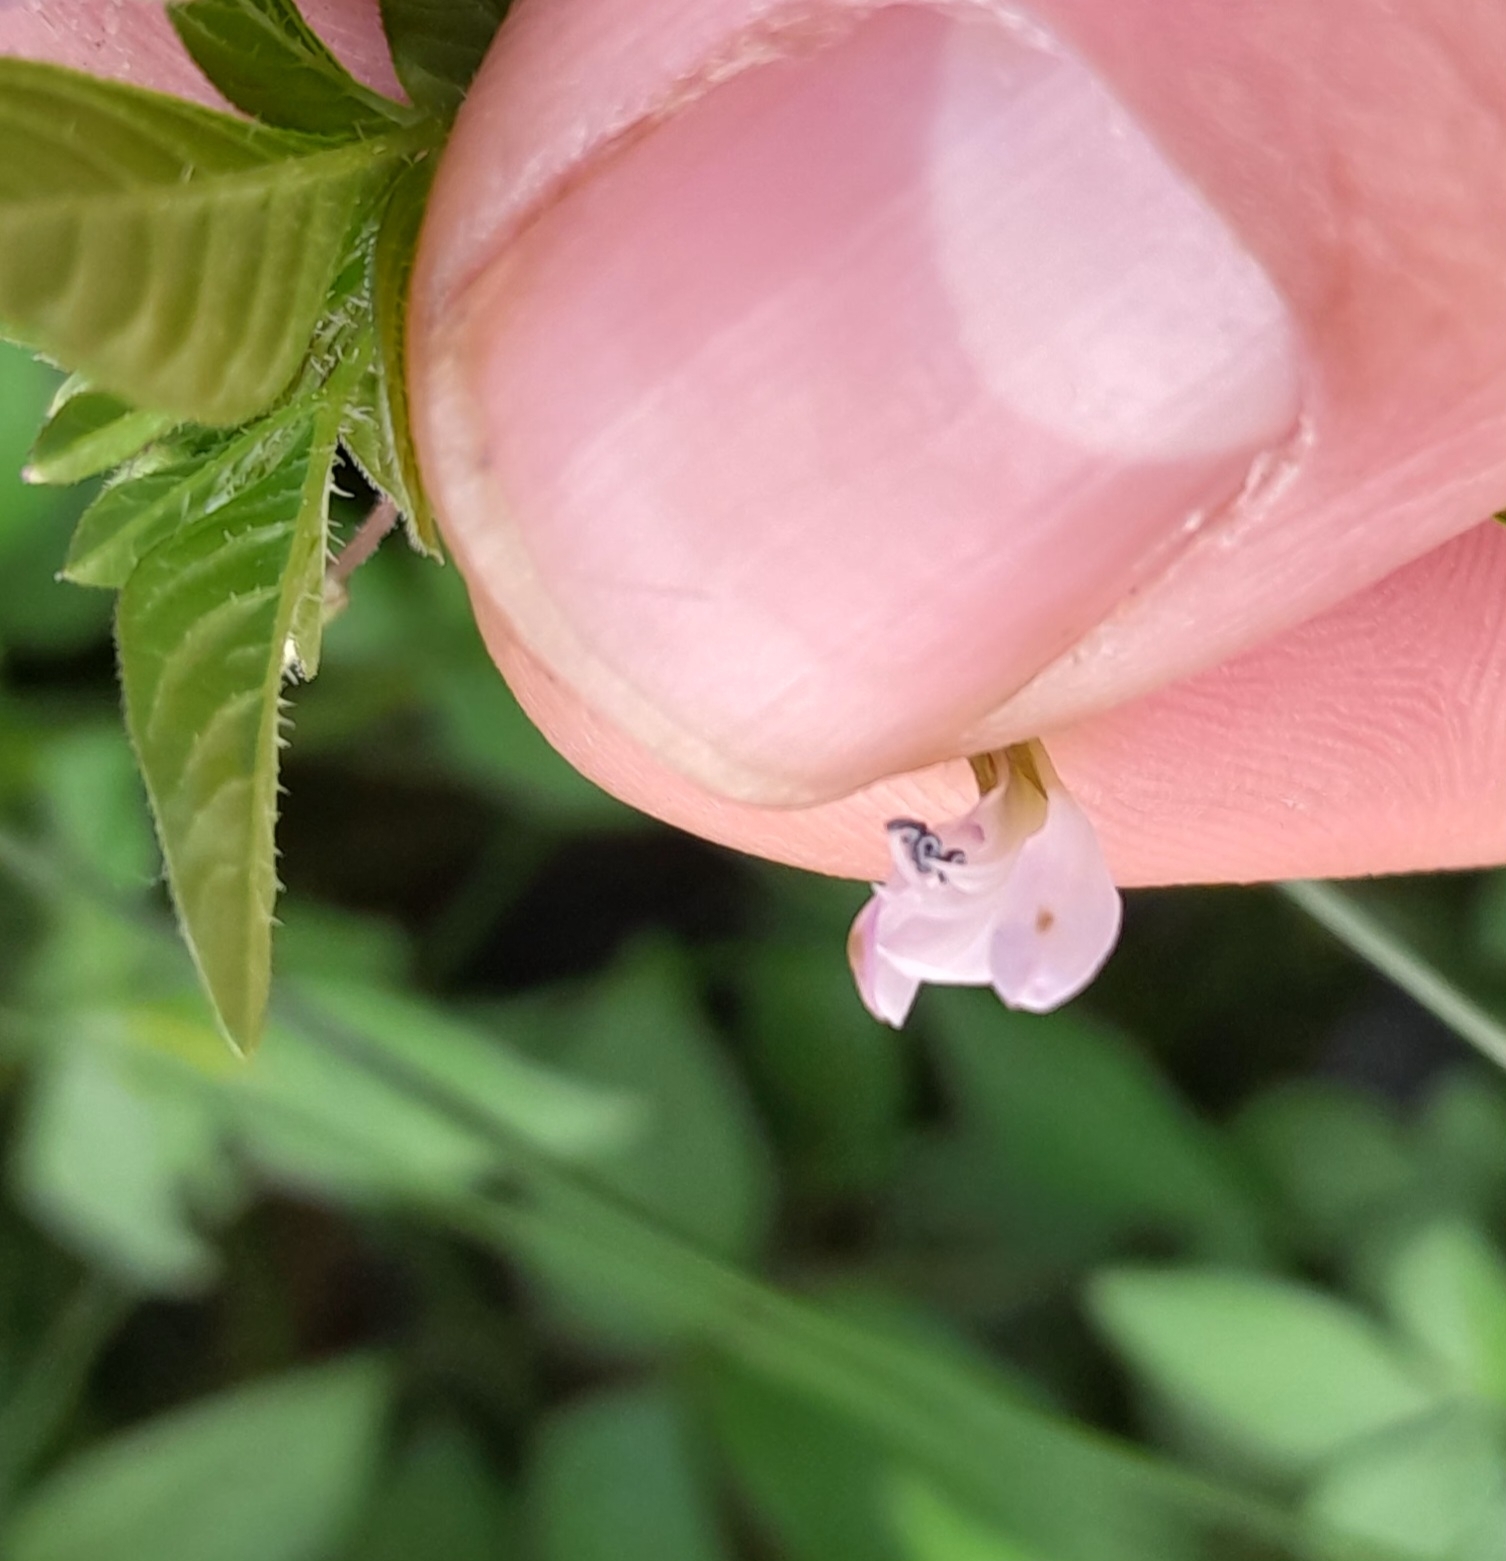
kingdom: Plantae
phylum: Tracheophyta
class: Magnoliopsida
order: Brassicales
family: Cleomaceae
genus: Sieruela
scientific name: Sieruela rutidosperma
